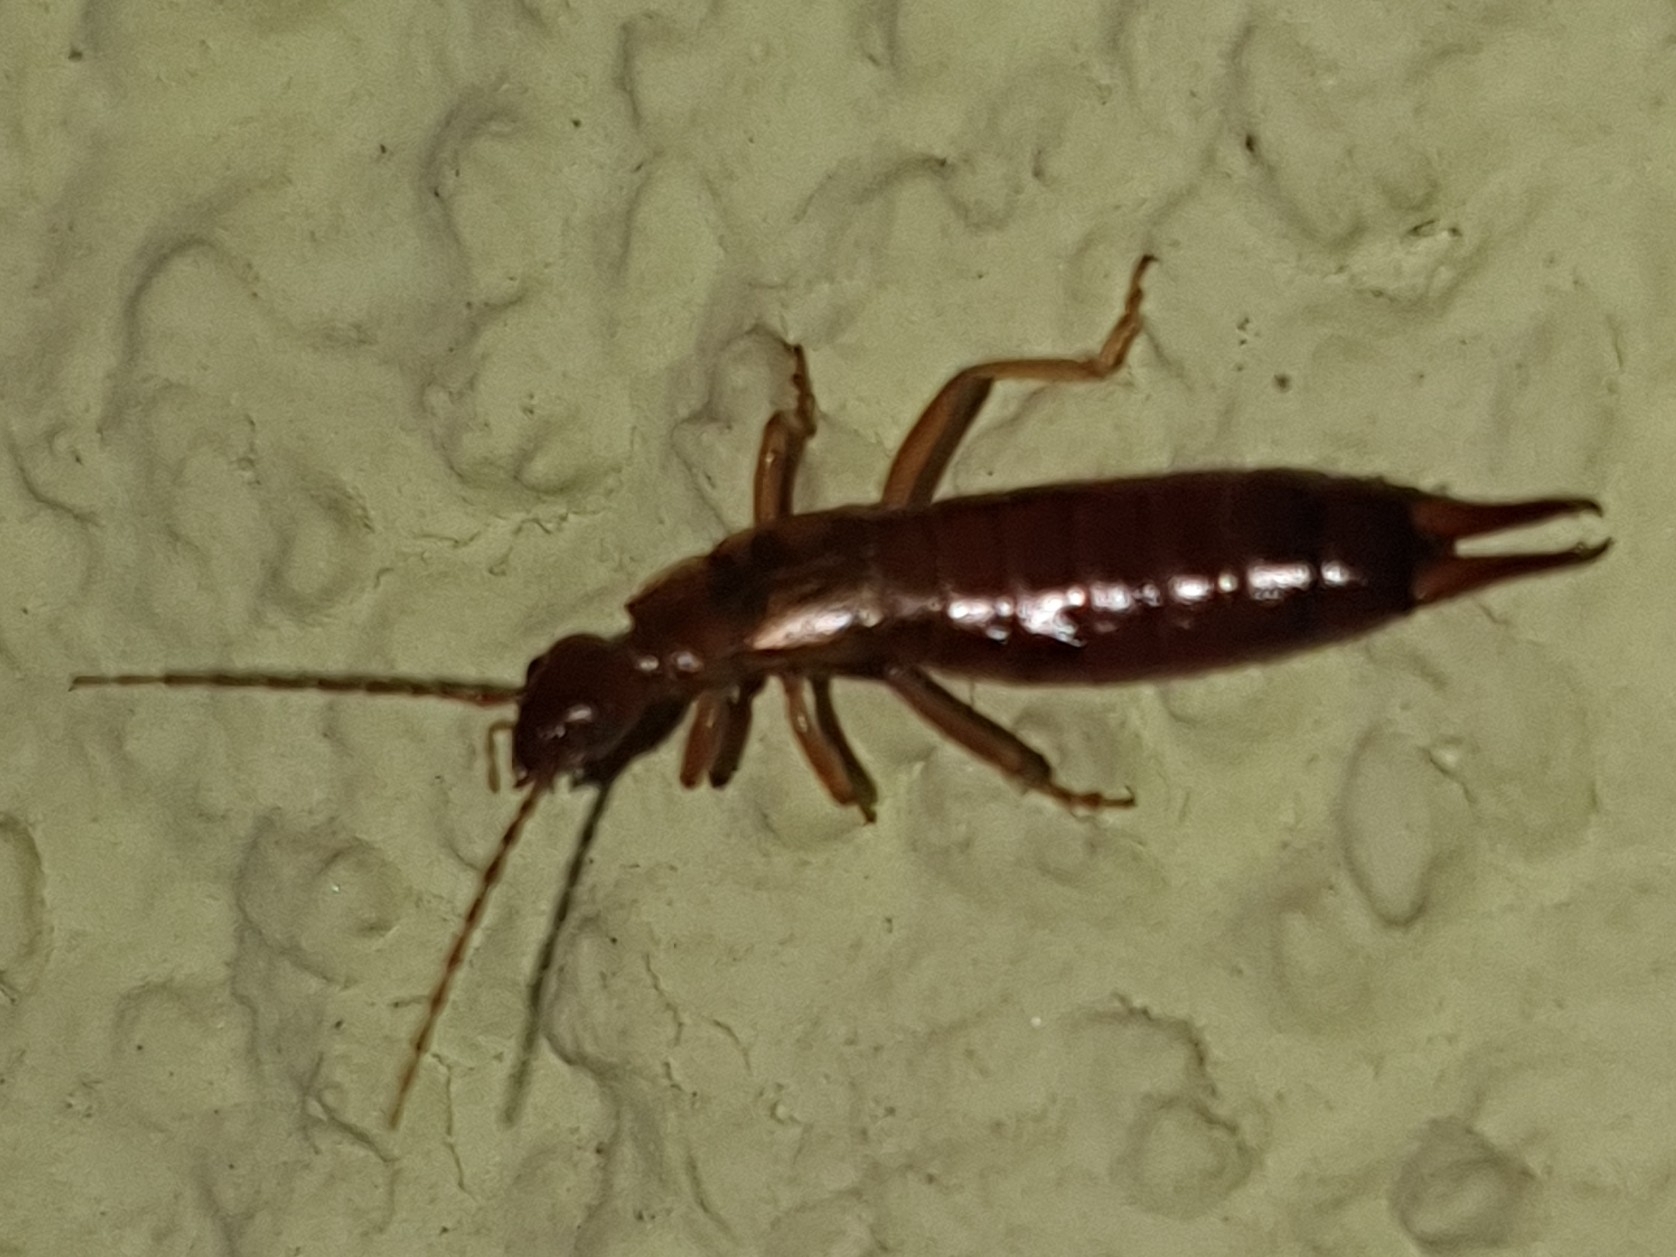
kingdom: Animalia
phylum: Arthropoda
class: Insecta
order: Dermaptera
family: Forficulidae
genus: Apterygida
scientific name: Apterygida albipennis
